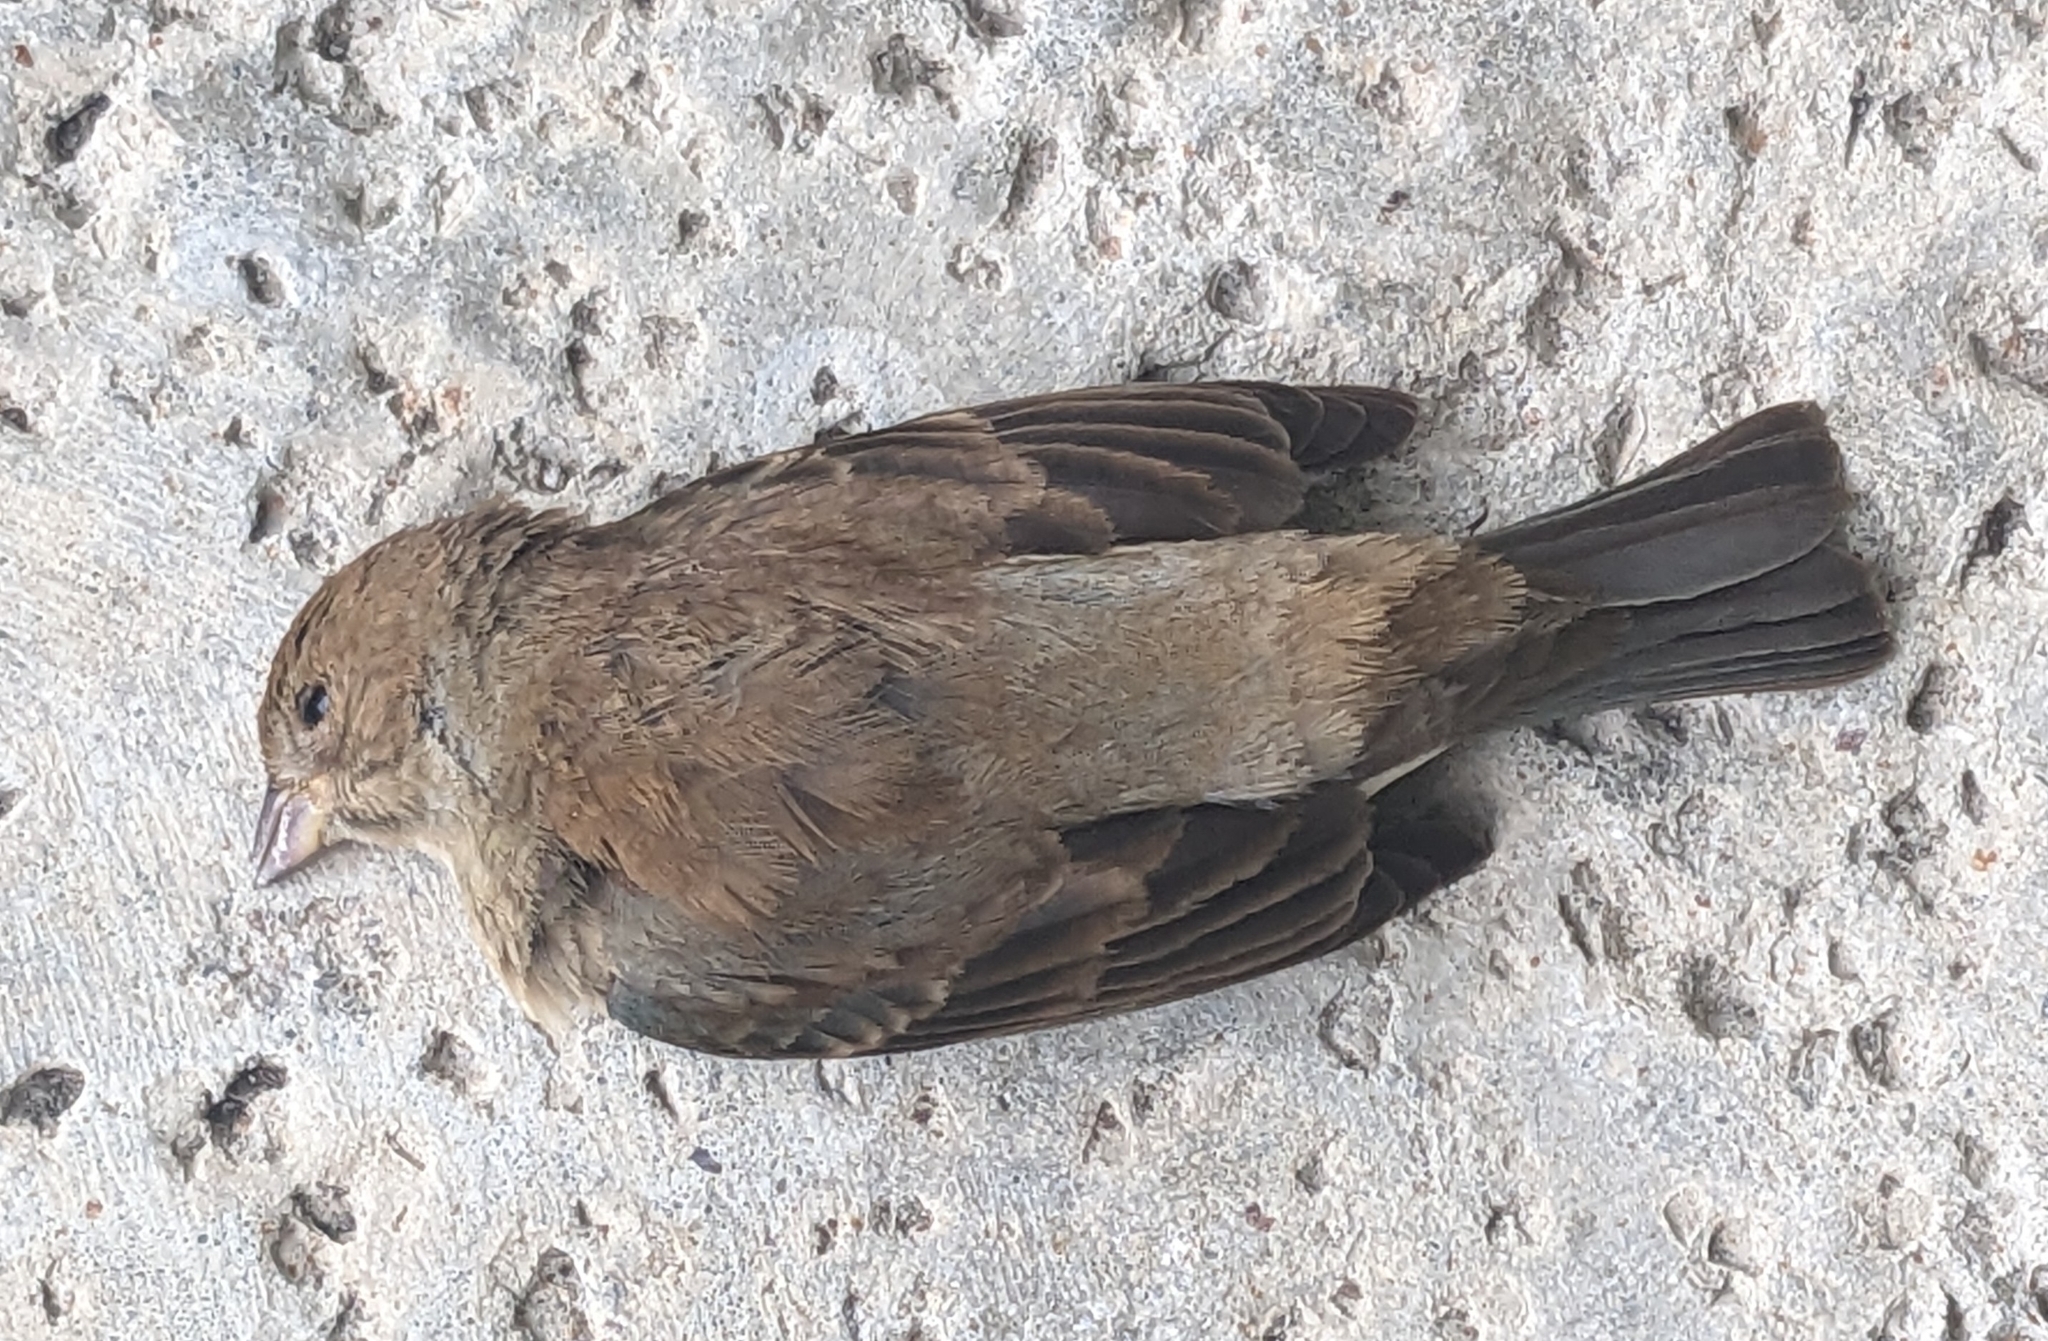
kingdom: Animalia
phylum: Chordata
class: Aves
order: Passeriformes
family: Cardinalidae
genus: Passerina
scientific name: Passerina cyanea
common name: Indigo bunting
